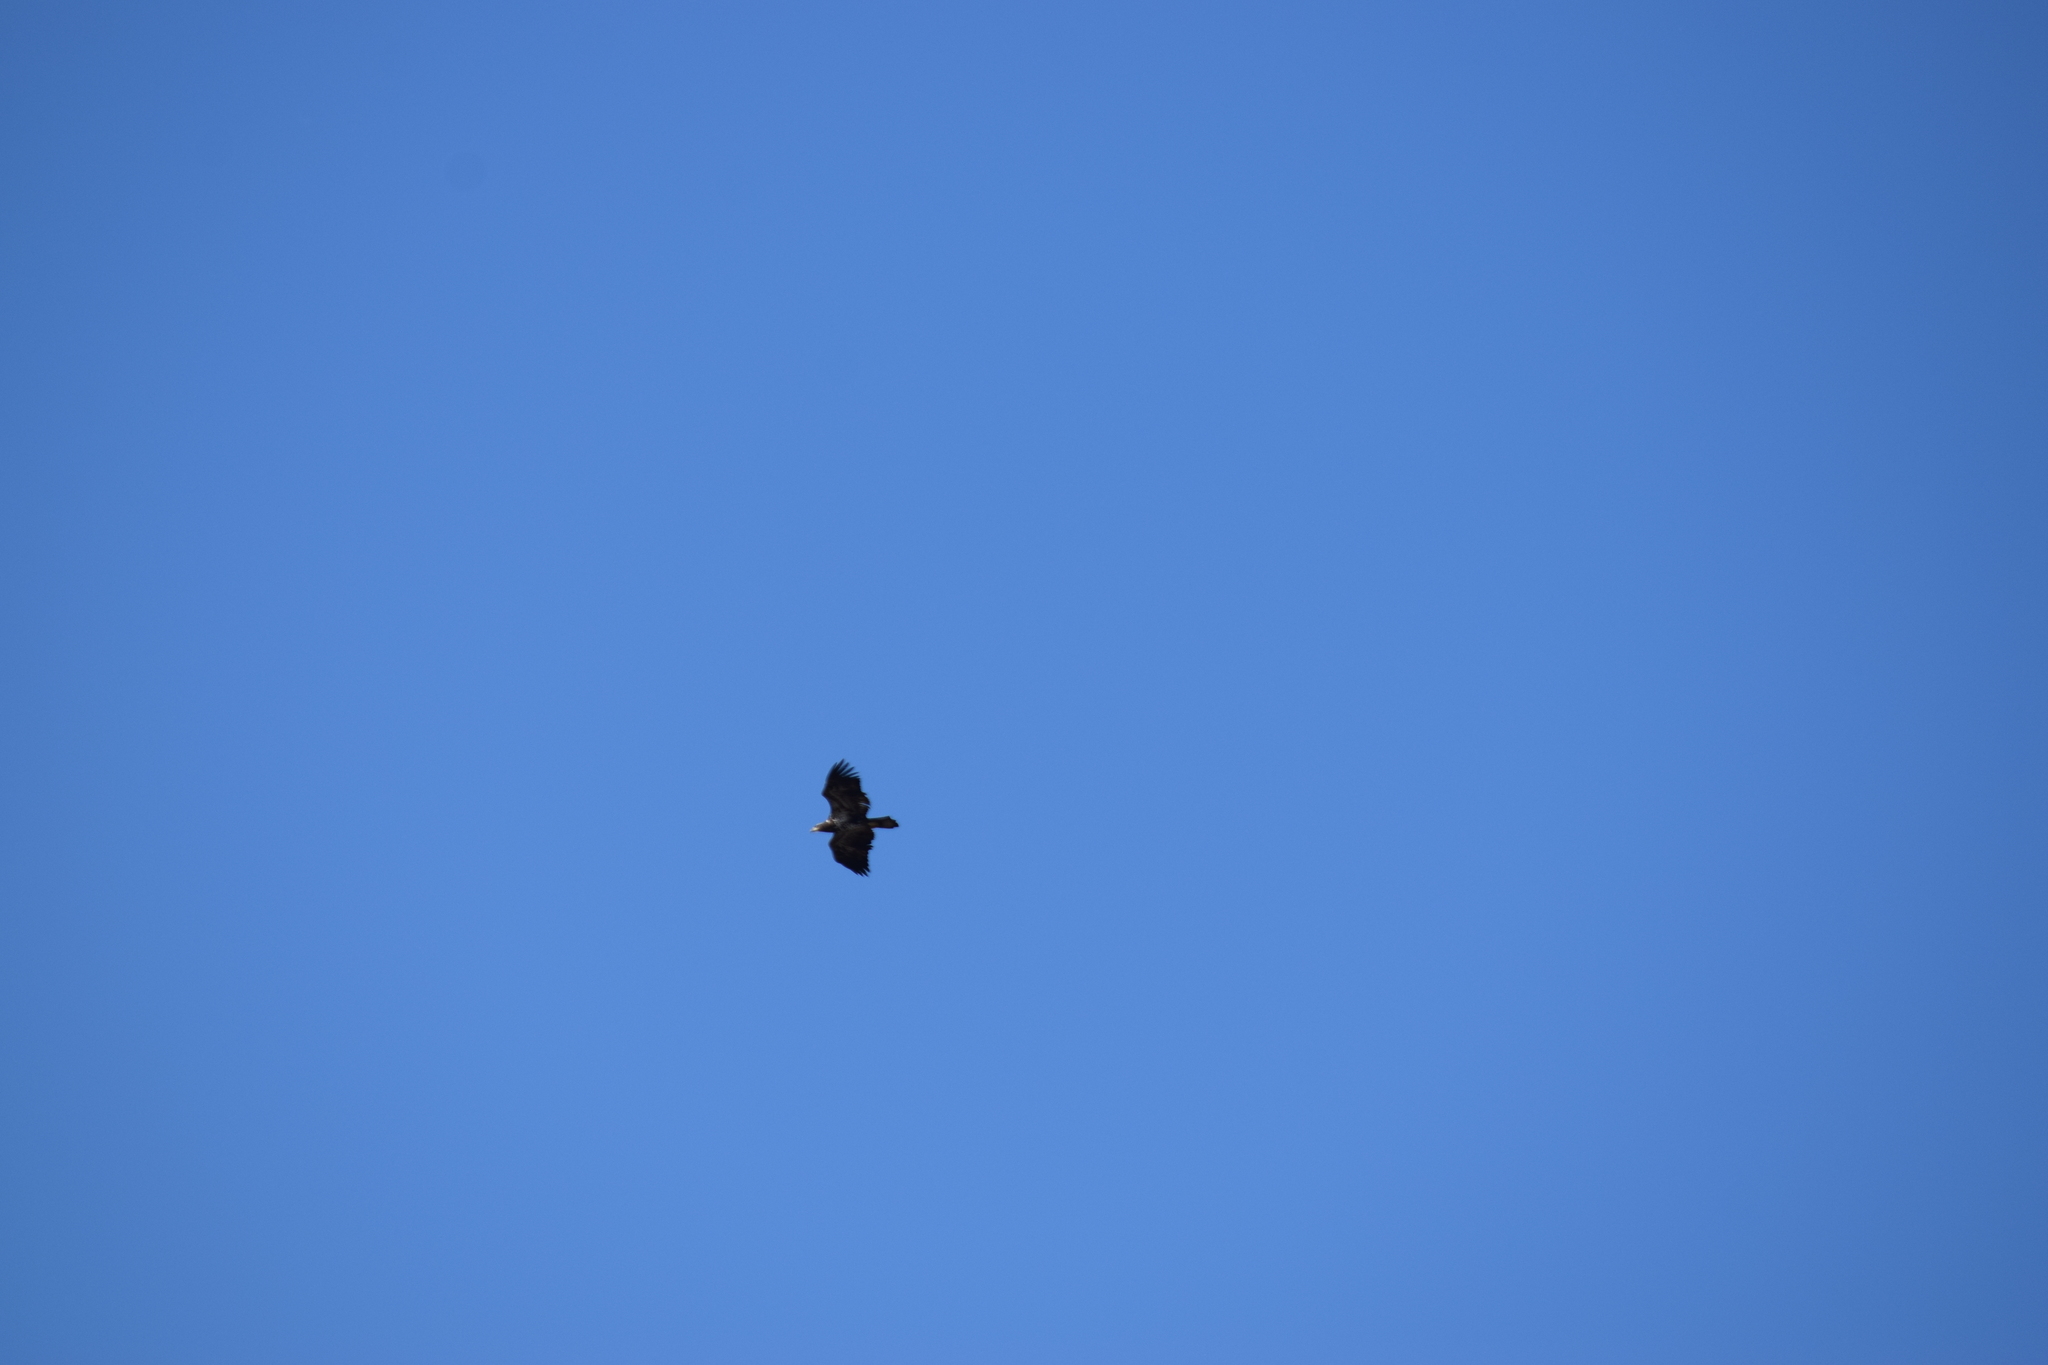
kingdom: Animalia
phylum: Chordata
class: Aves
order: Accipitriformes
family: Accipitridae
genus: Haliaeetus
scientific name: Haliaeetus leucocephalus
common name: Bald eagle
